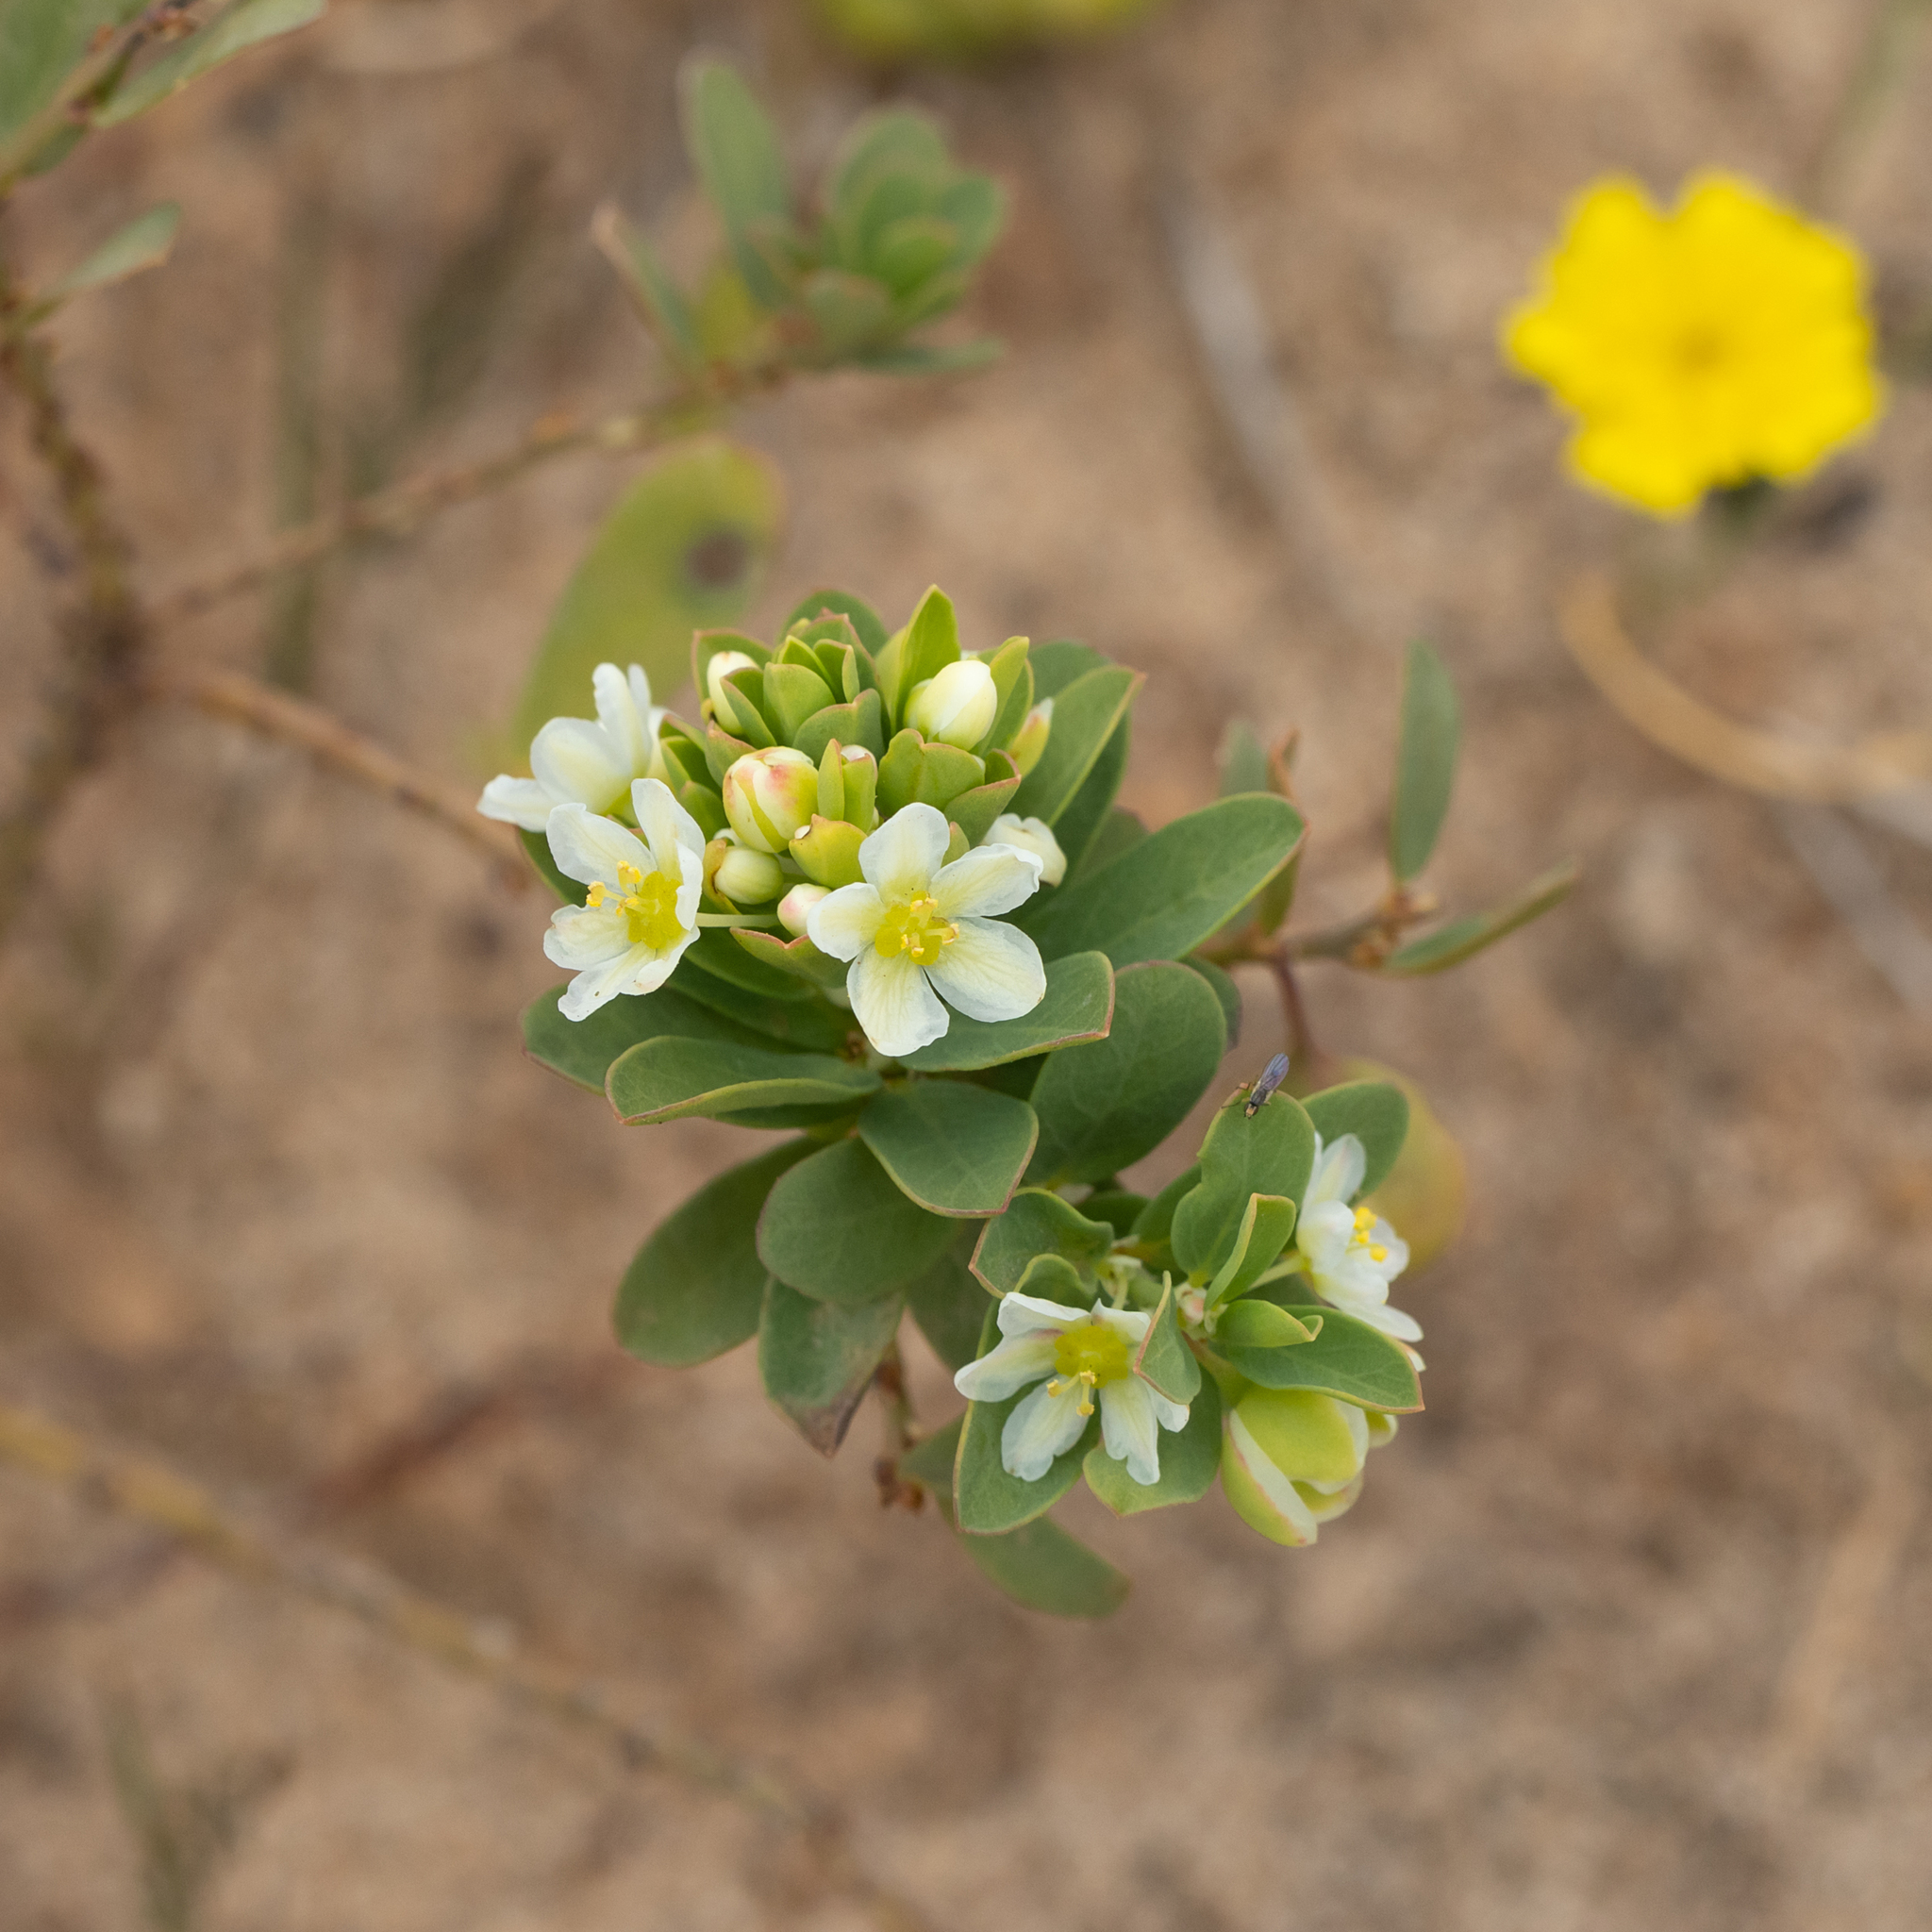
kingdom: Plantae
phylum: Tracheophyta
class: Magnoliopsida
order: Malpighiales
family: Phyllanthaceae
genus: Phyllanthus
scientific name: Phyllanthus calycinus
